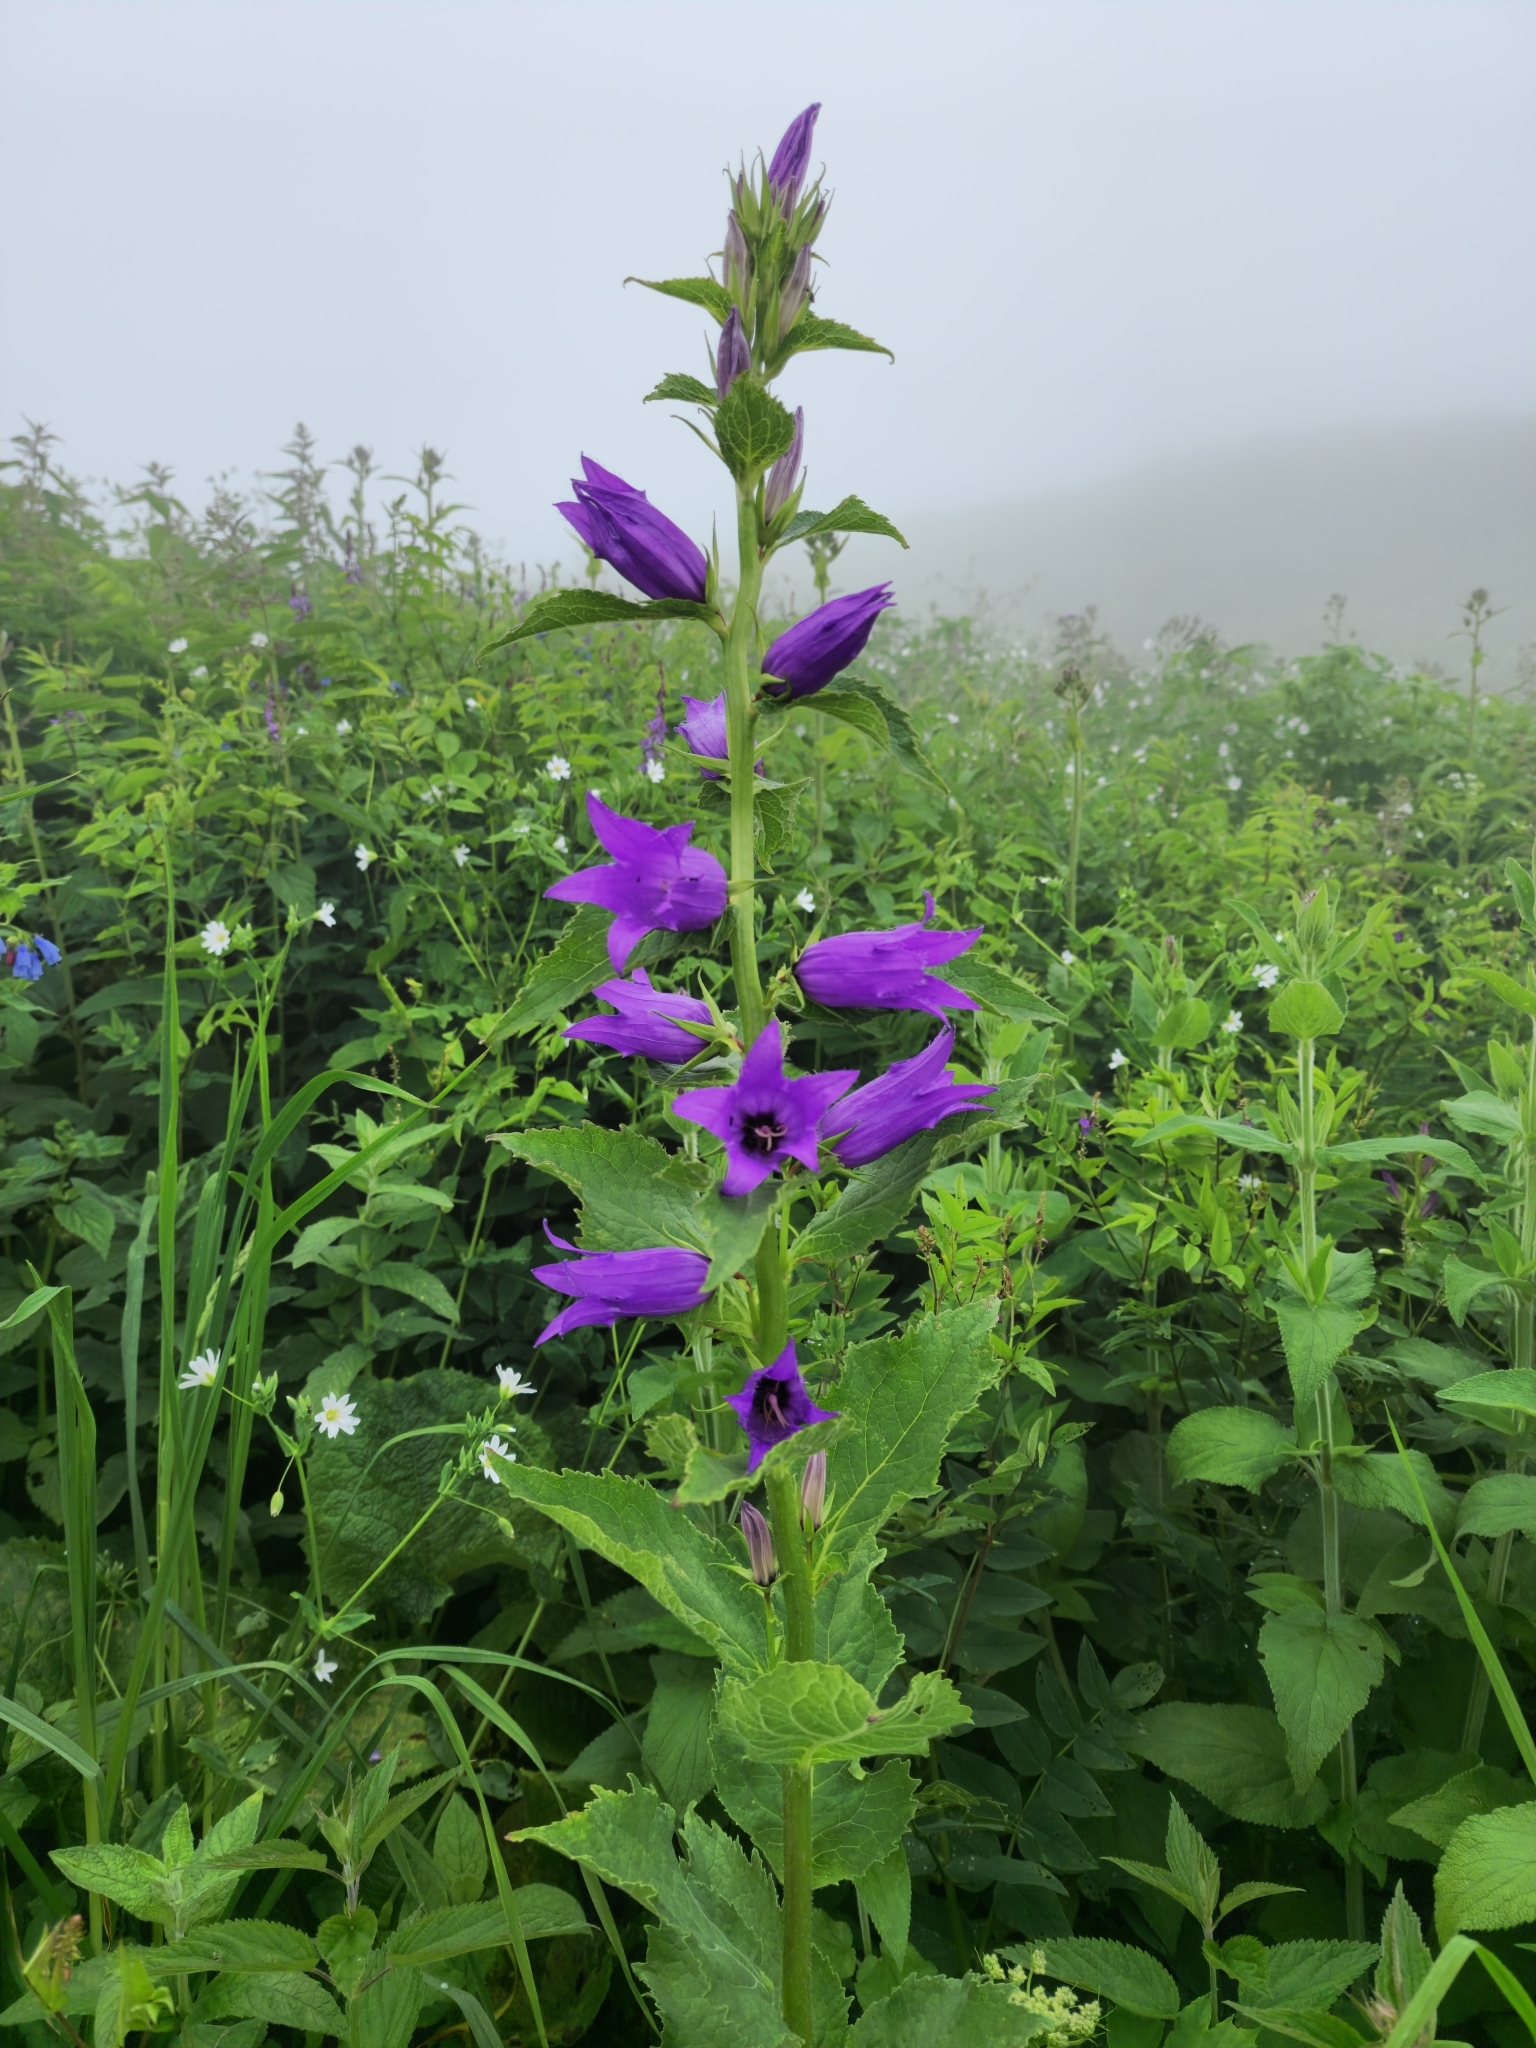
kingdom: Plantae
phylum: Tracheophyta
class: Magnoliopsida
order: Asterales
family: Campanulaceae
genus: Campanula
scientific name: Campanula latifolia
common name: Giant bellflower
